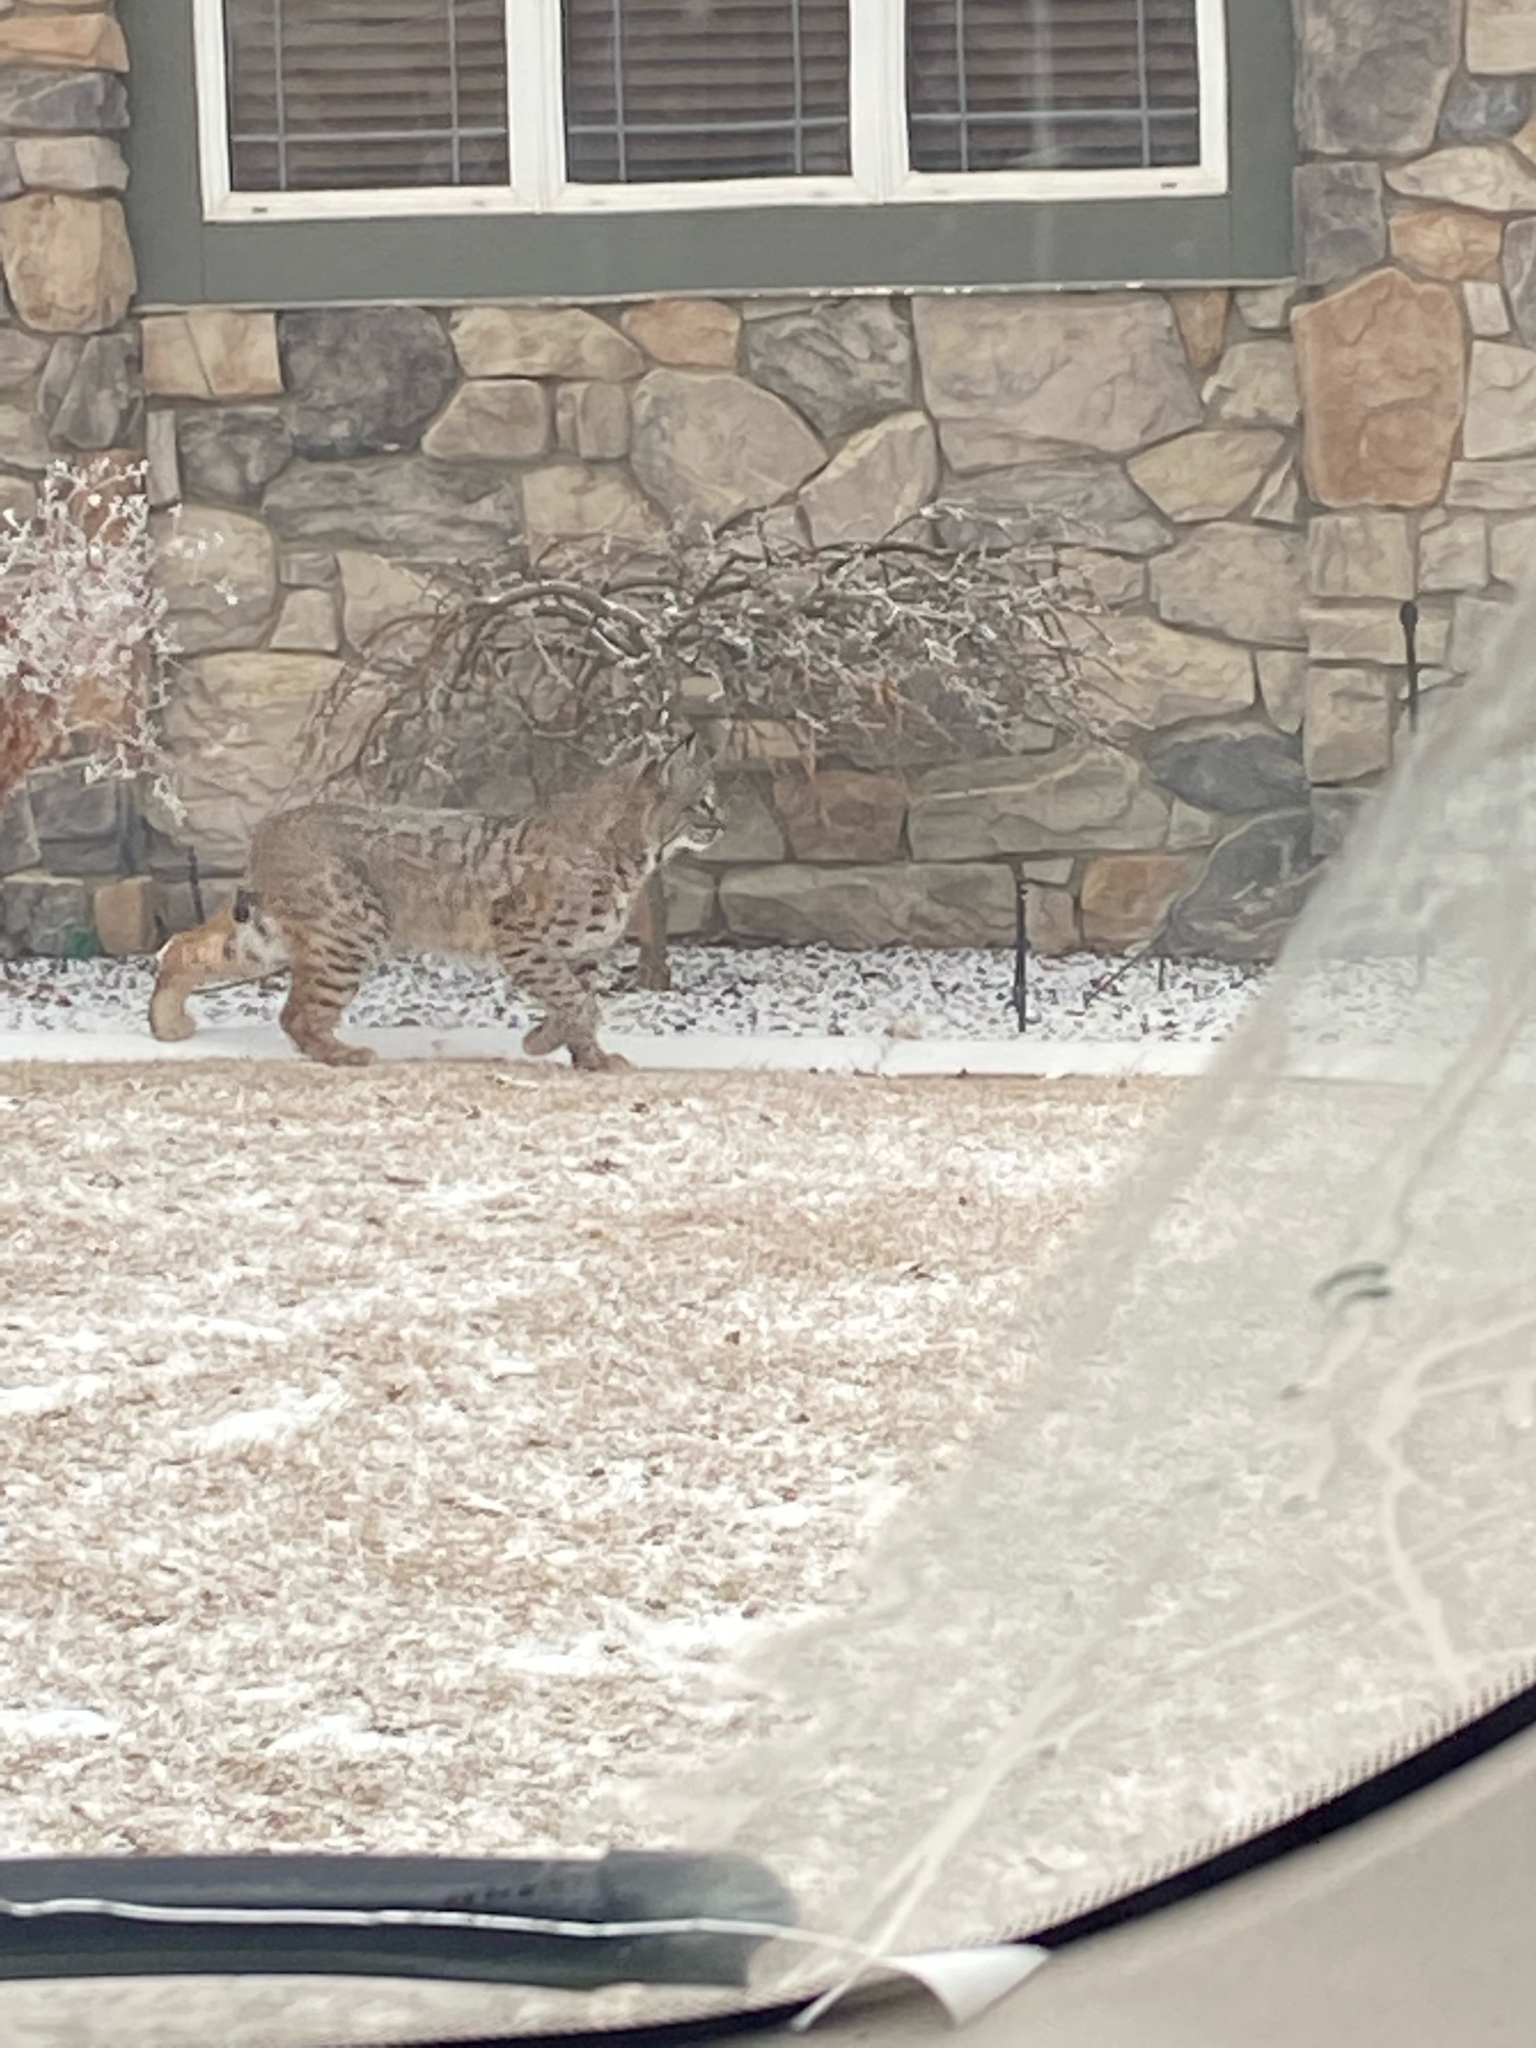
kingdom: Animalia
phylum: Chordata
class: Mammalia
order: Carnivora
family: Felidae
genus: Lynx
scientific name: Lynx rufus
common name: Bobcat
